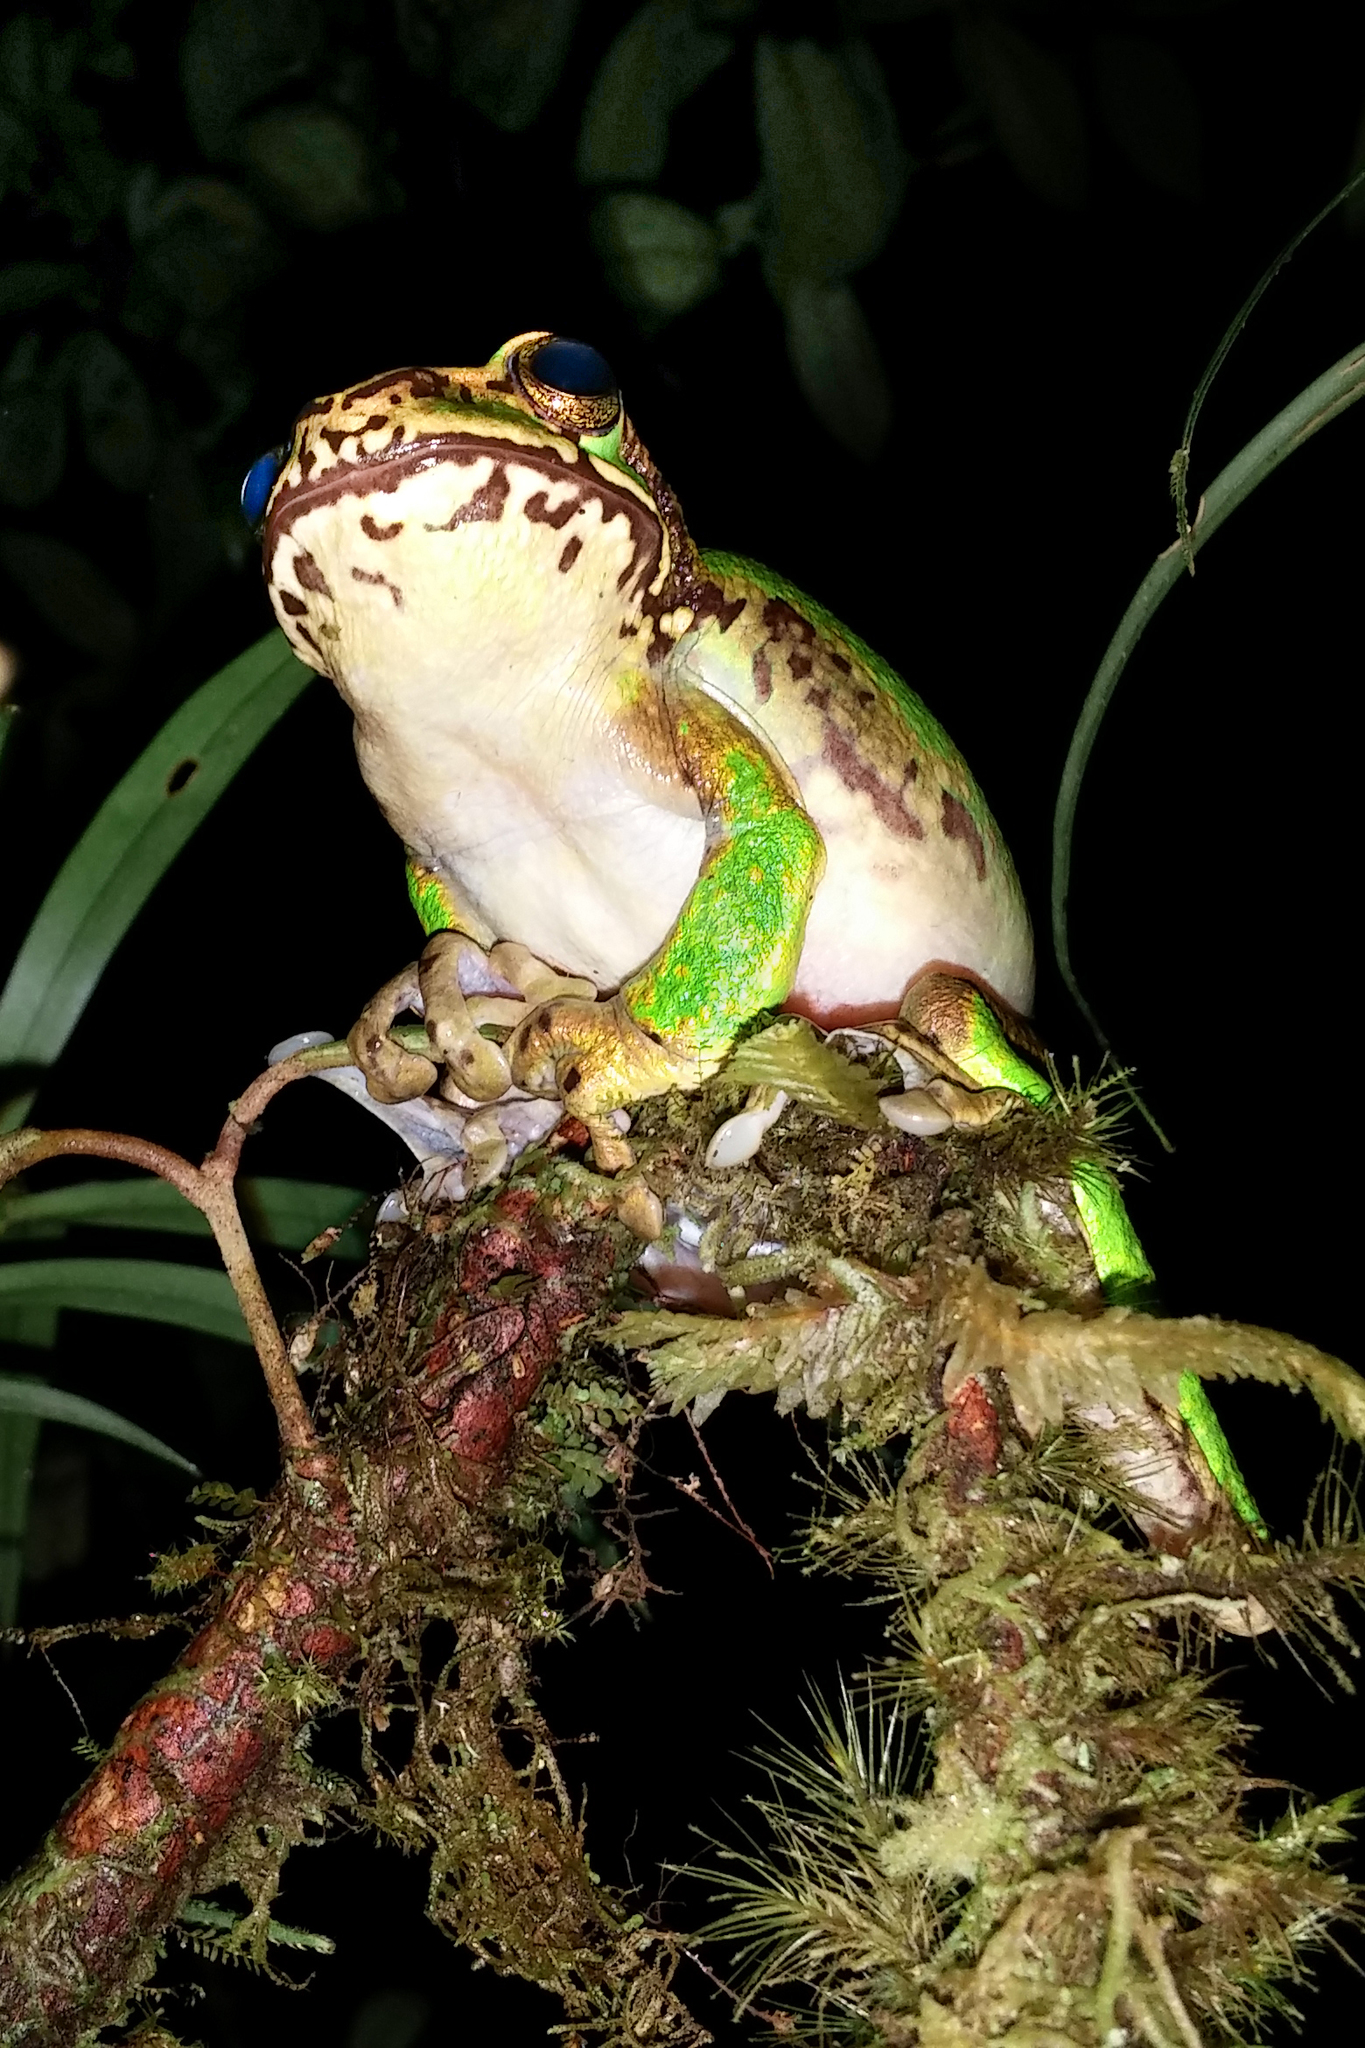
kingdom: Animalia
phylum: Chordata
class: Amphibia
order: Anura
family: Pelodryadidae
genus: Litoria
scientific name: Litoria angiana
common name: Angiana treefrog
